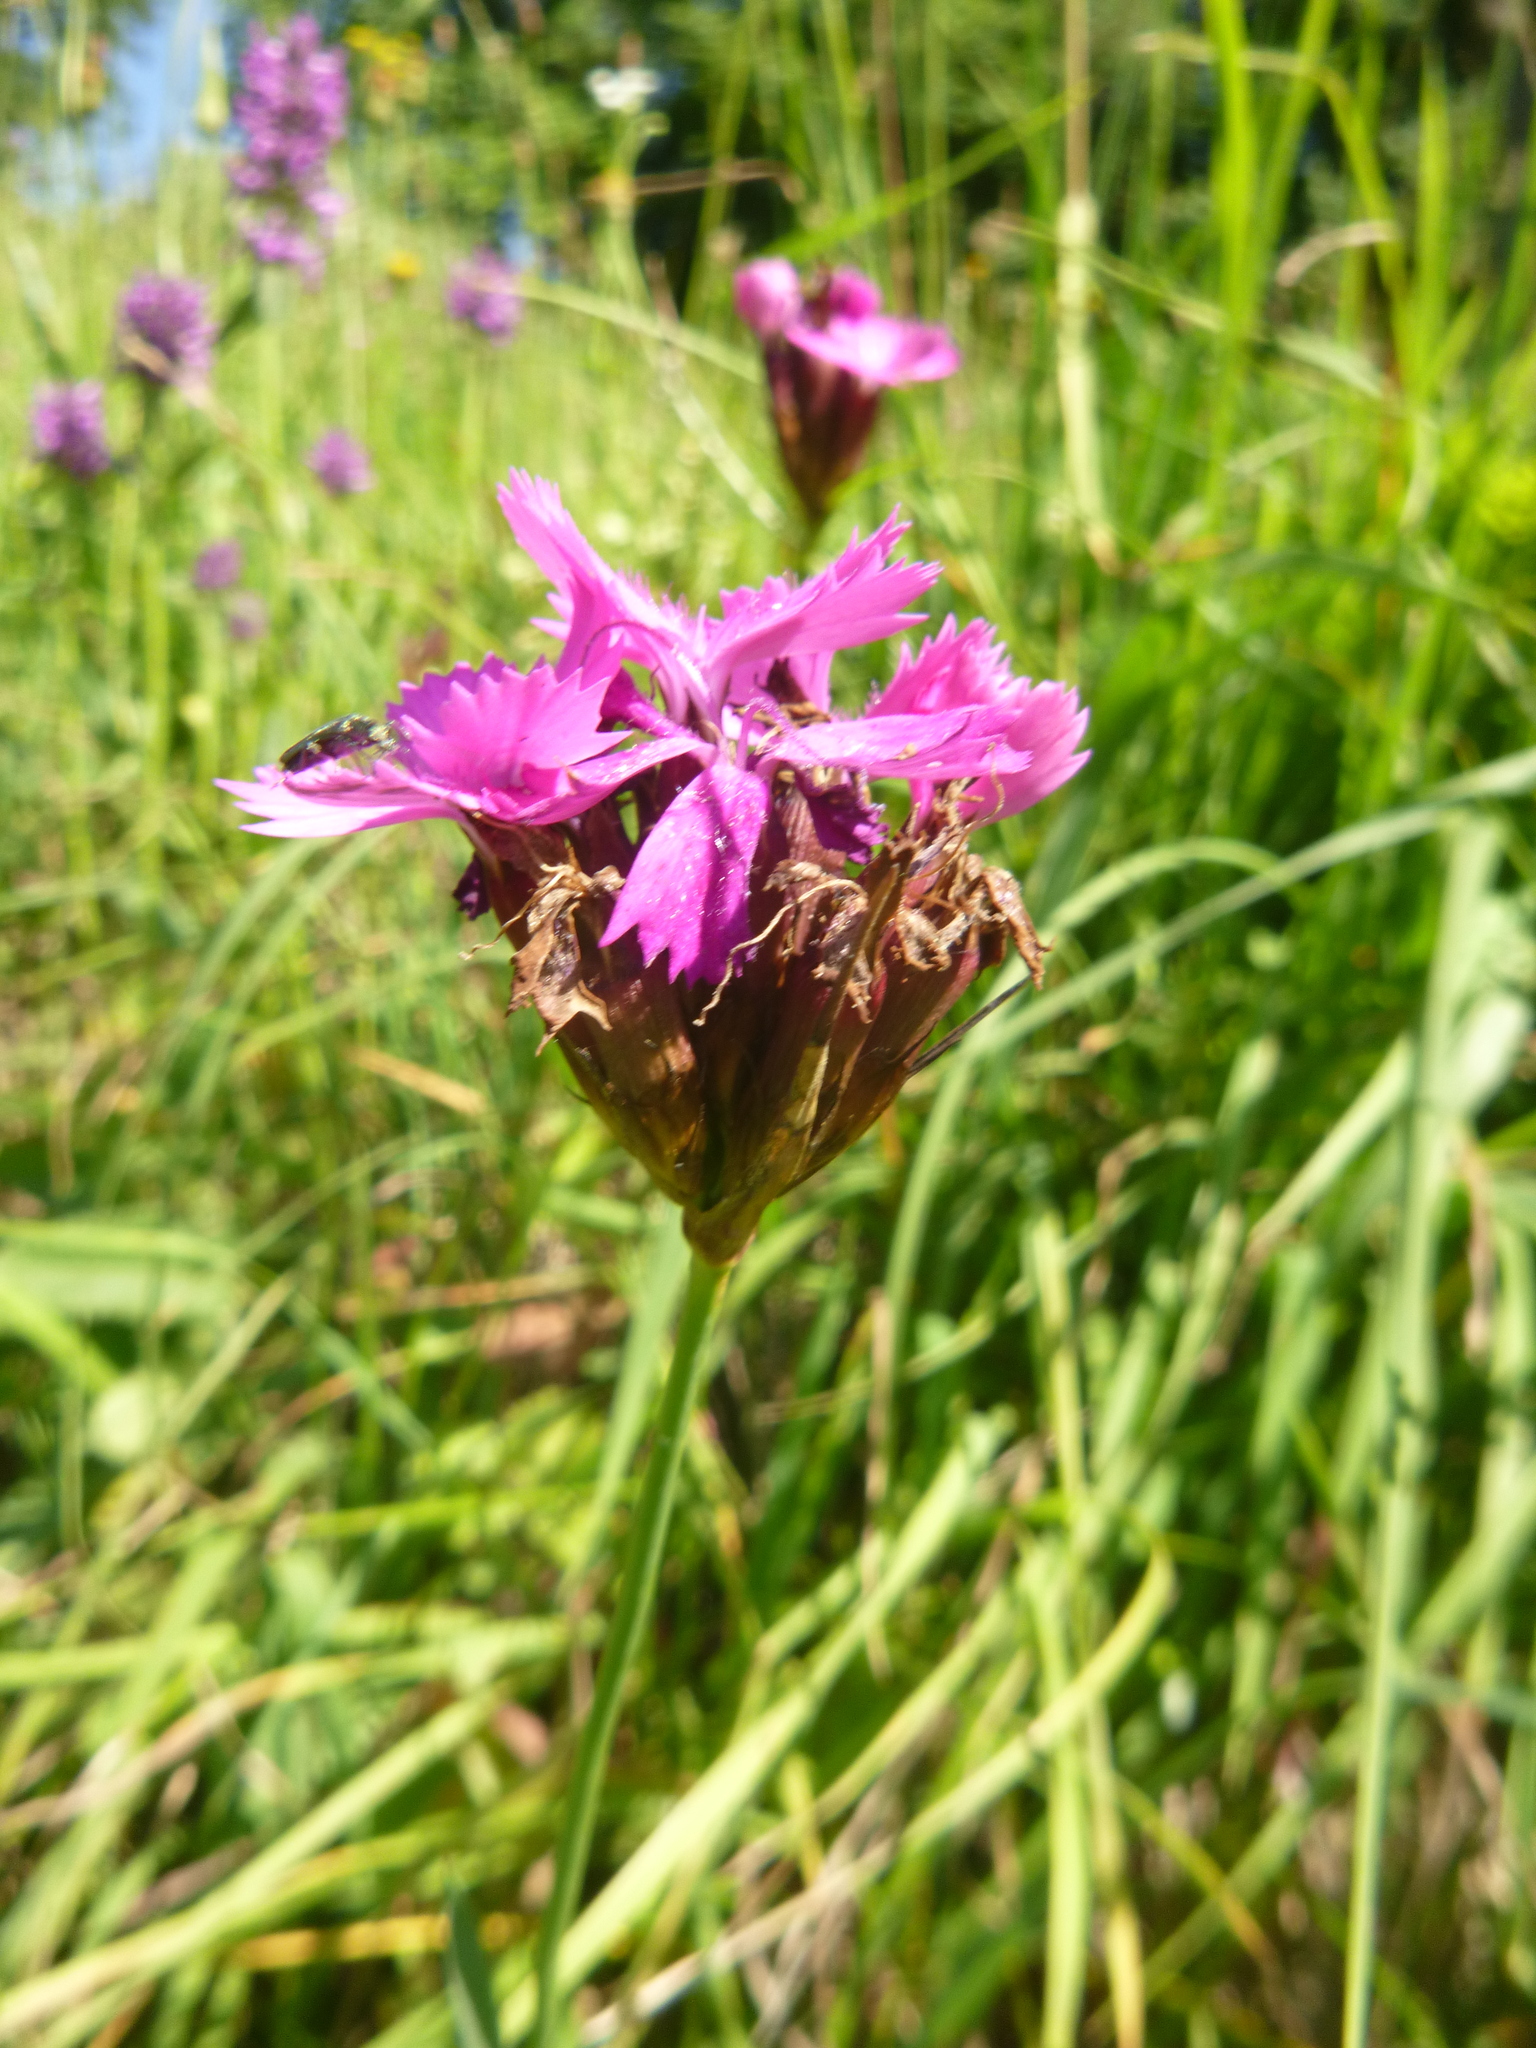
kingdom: Plantae
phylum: Tracheophyta
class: Magnoliopsida
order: Caryophyllales
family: Caryophyllaceae
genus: Dianthus
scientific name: Dianthus carthusianorum
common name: Carthusian pink
